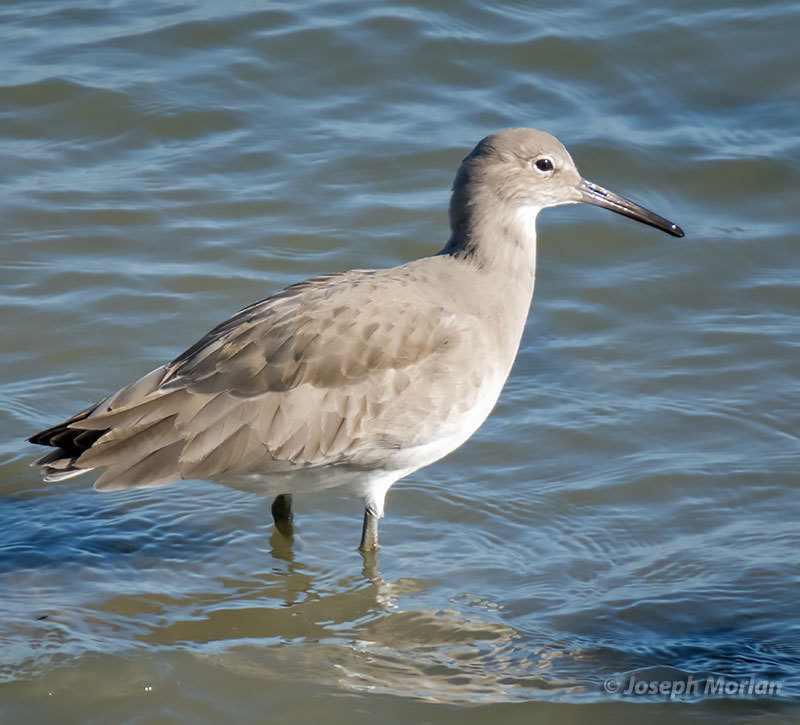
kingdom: Animalia
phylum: Chordata
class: Aves
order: Charadriiformes
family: Scolopacidae
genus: Tringa
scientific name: Tringa semipalmata
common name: Willet
